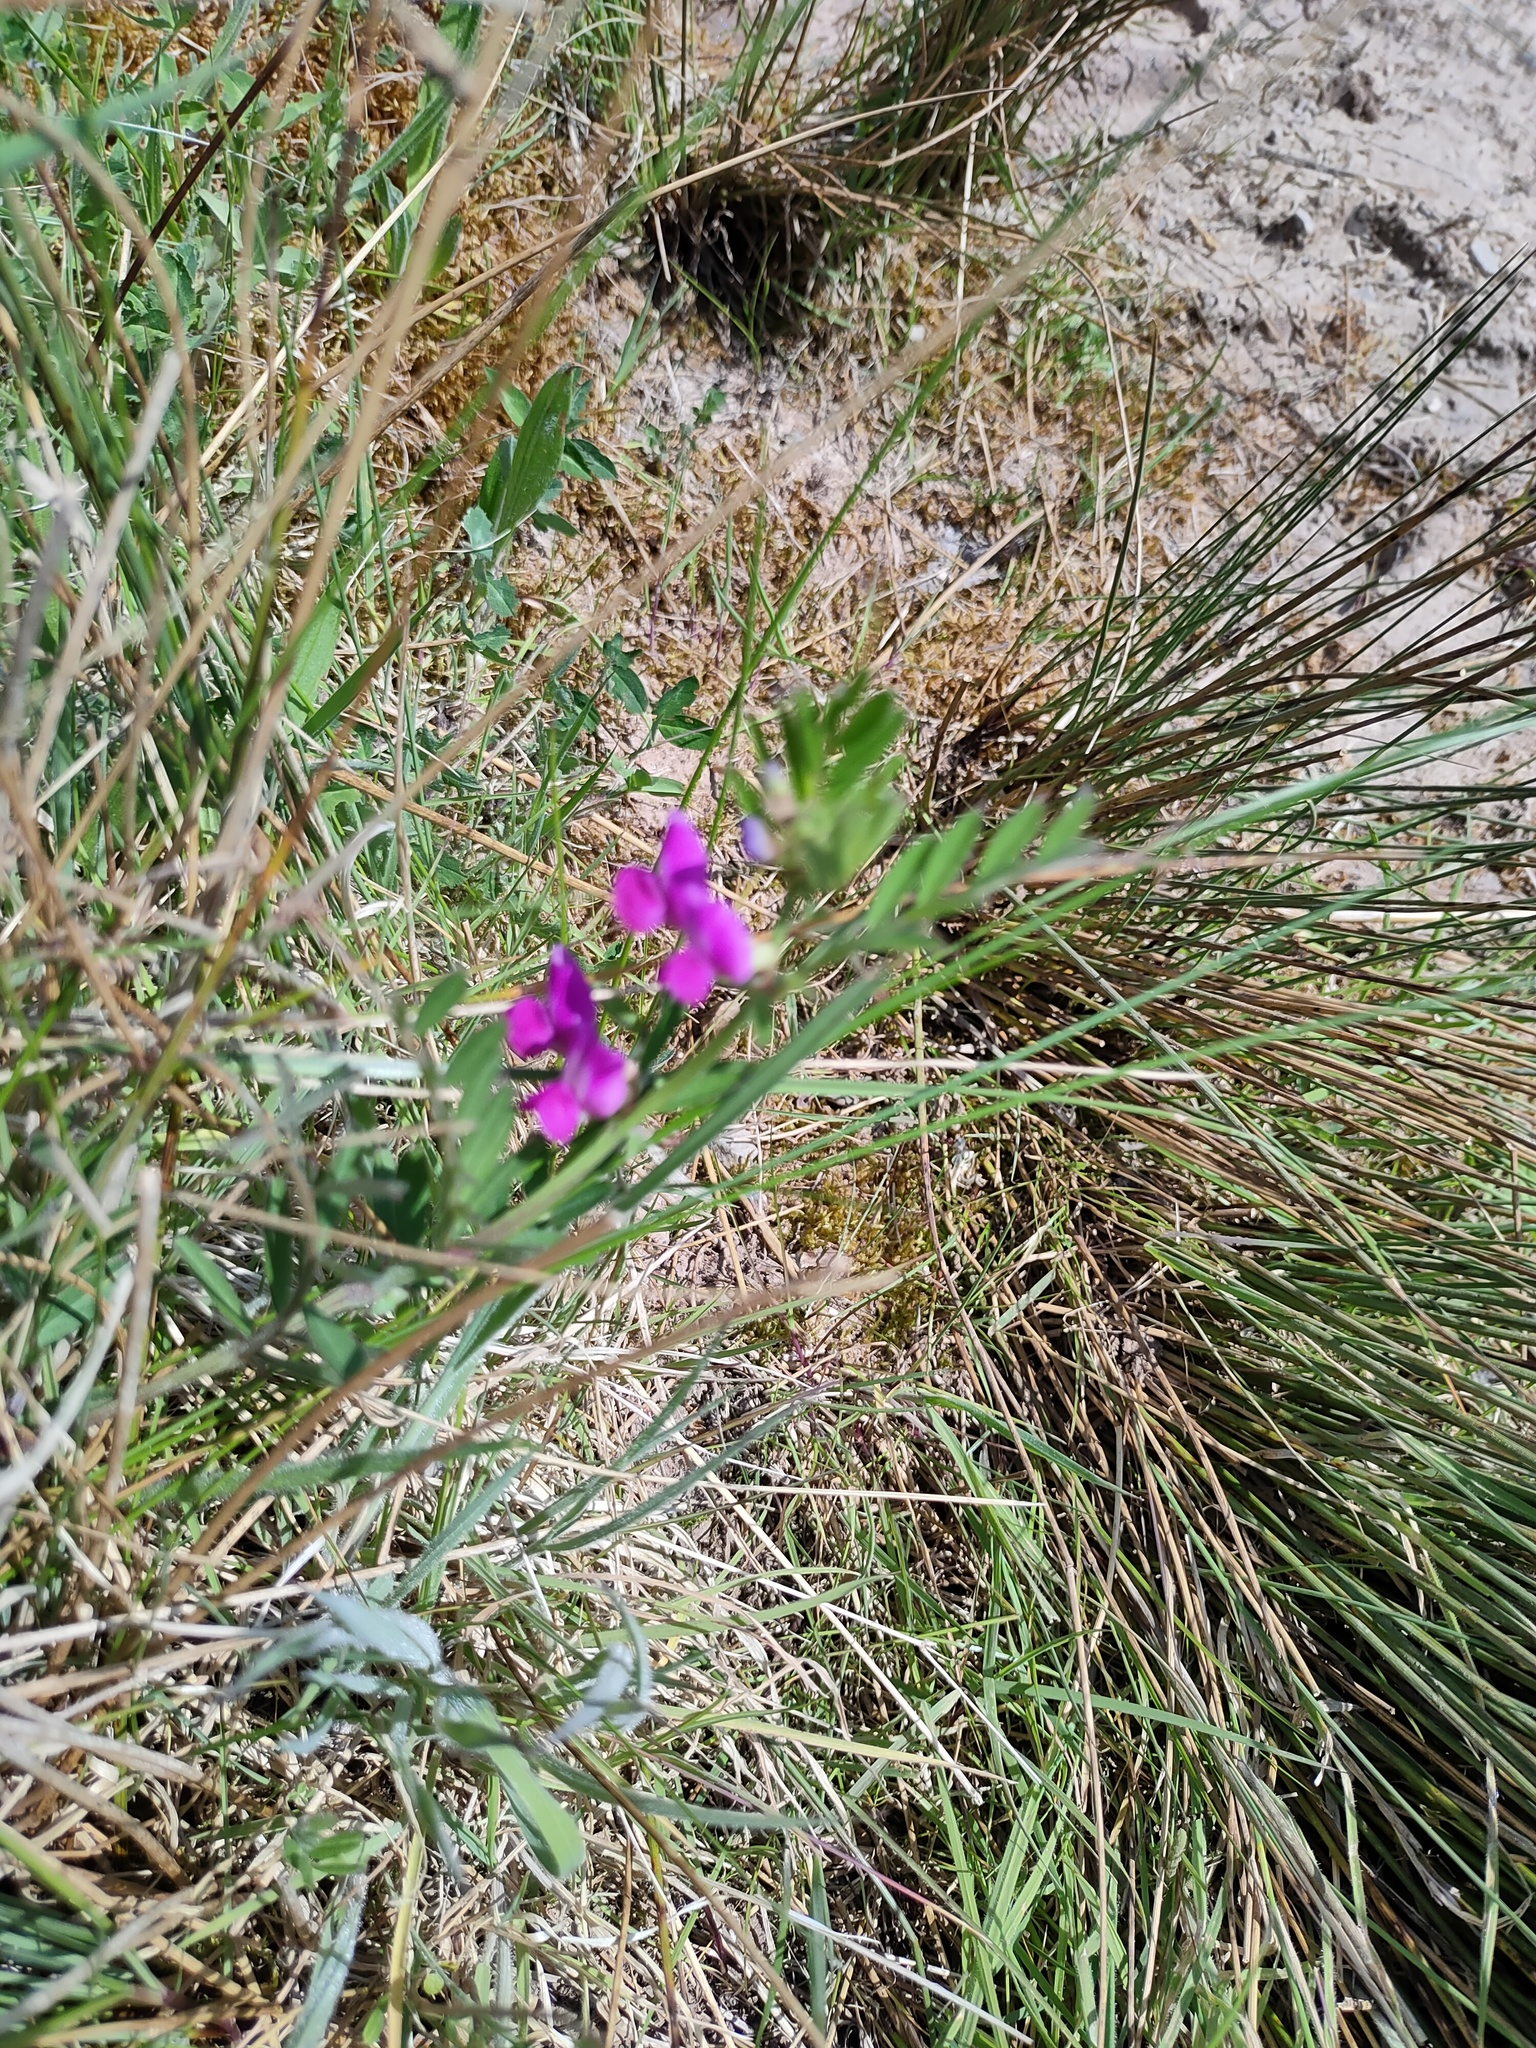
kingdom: Plantae
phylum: Tracheophyta
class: Magnoliopsida
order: Fabales
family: Fabaceae
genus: Vicia
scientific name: Vicia sativa
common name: Garden vetch
